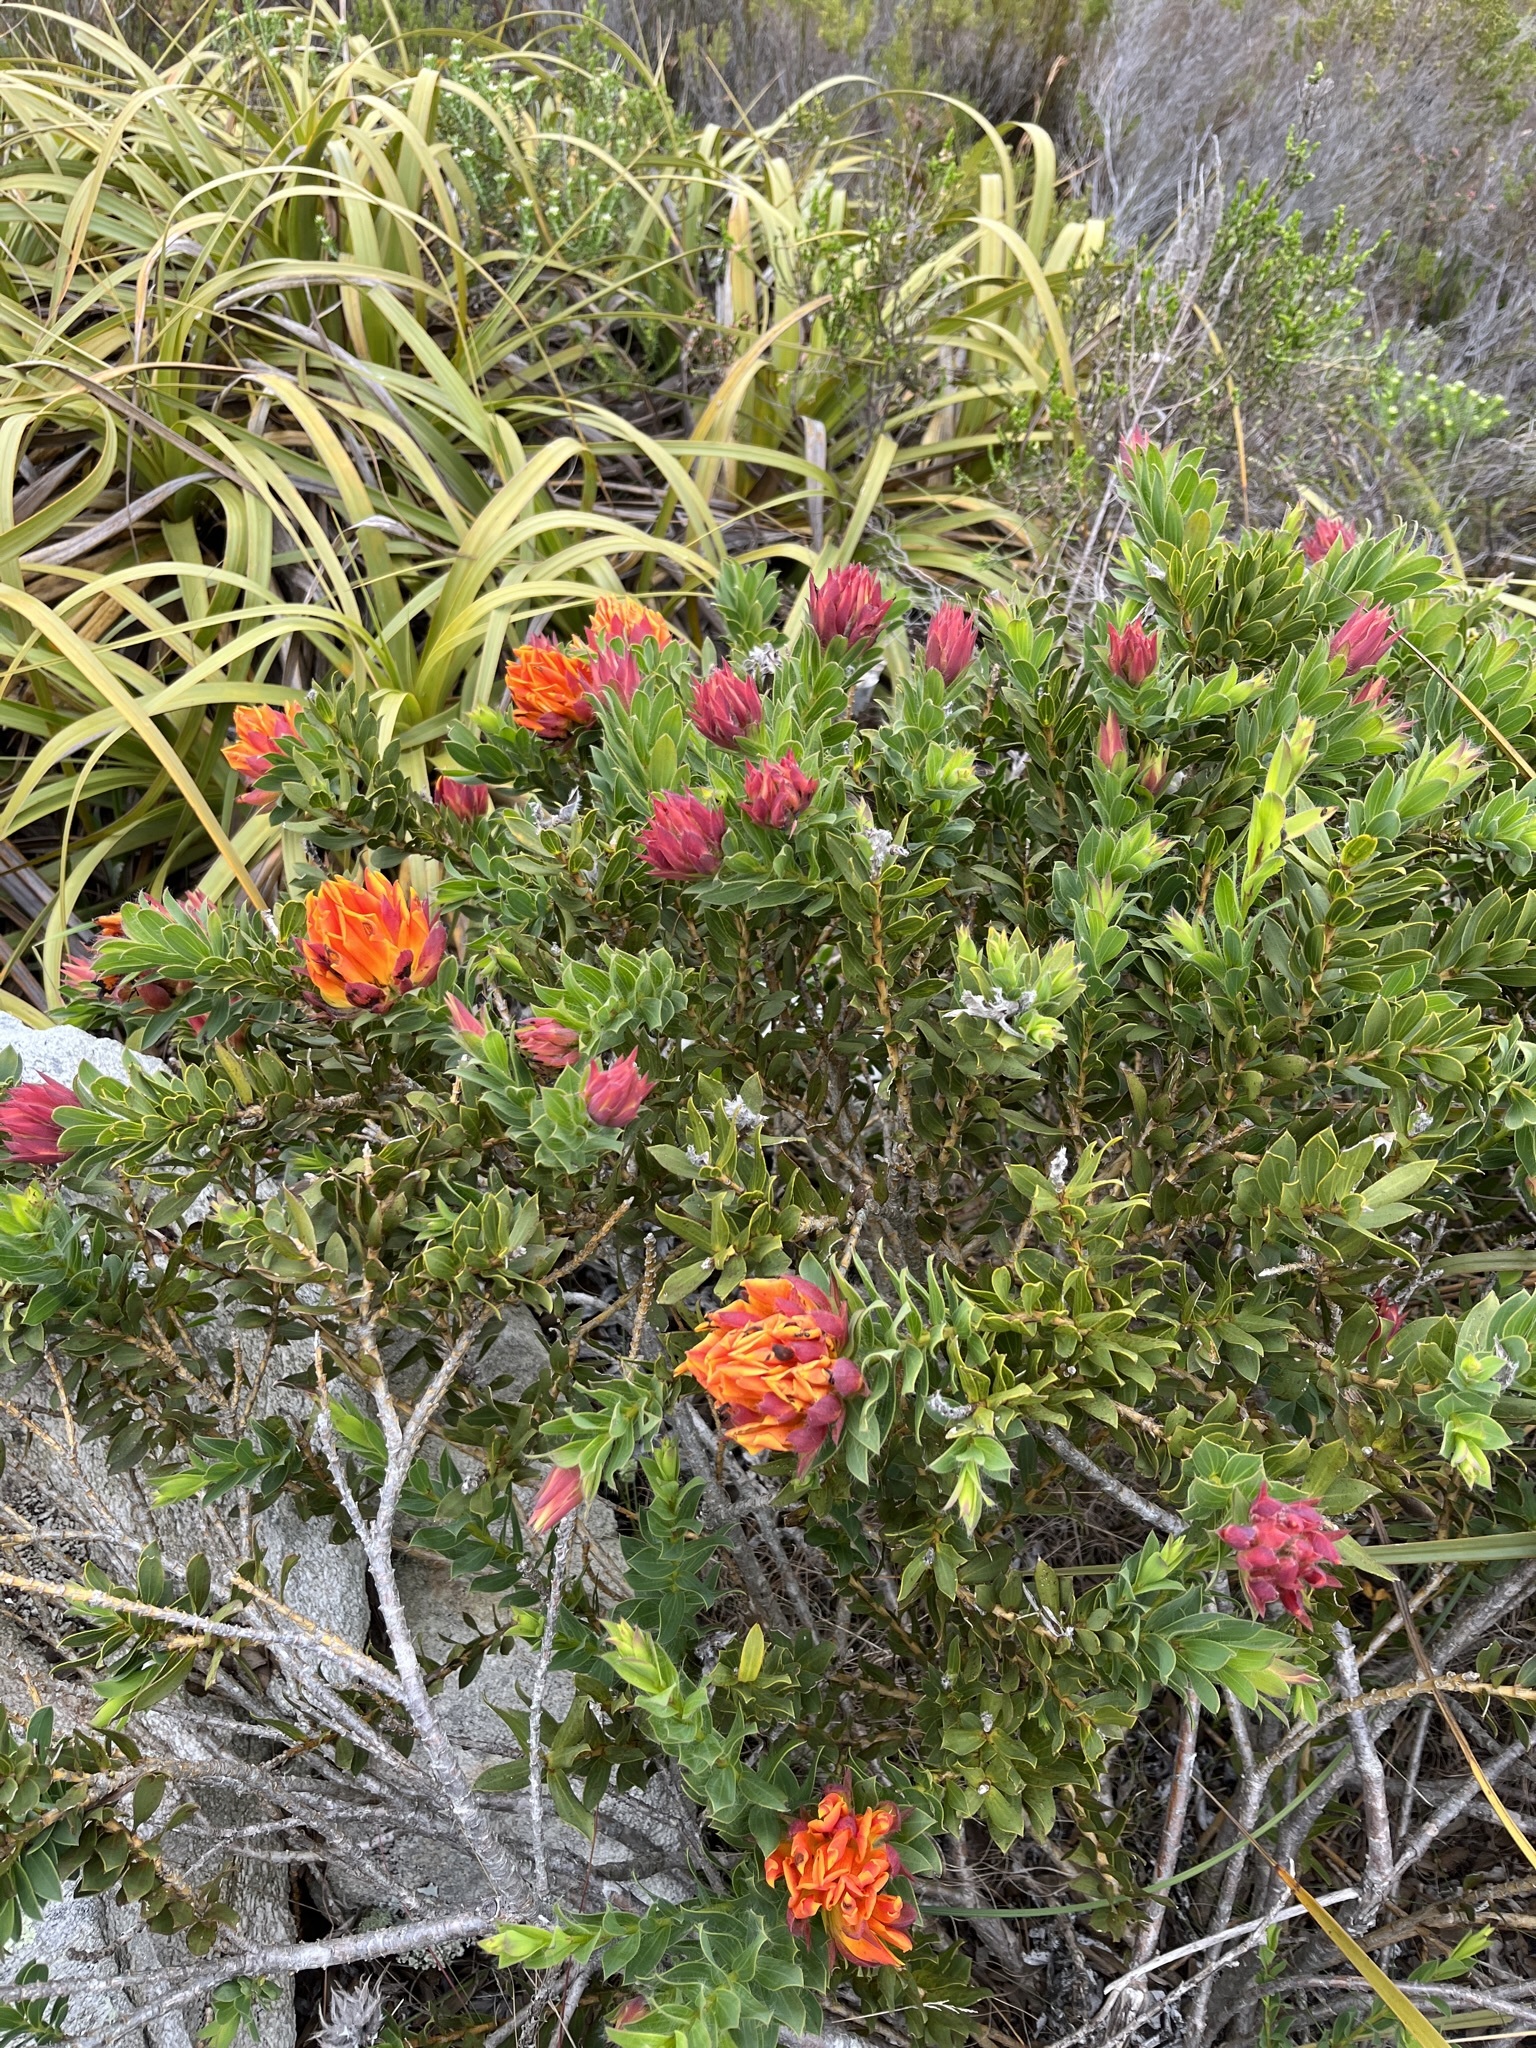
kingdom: Plantae
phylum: Tracheophyta
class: Magnoliopsida
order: Fabales
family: Fabaceae
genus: Liparia
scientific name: Liparia splendens
